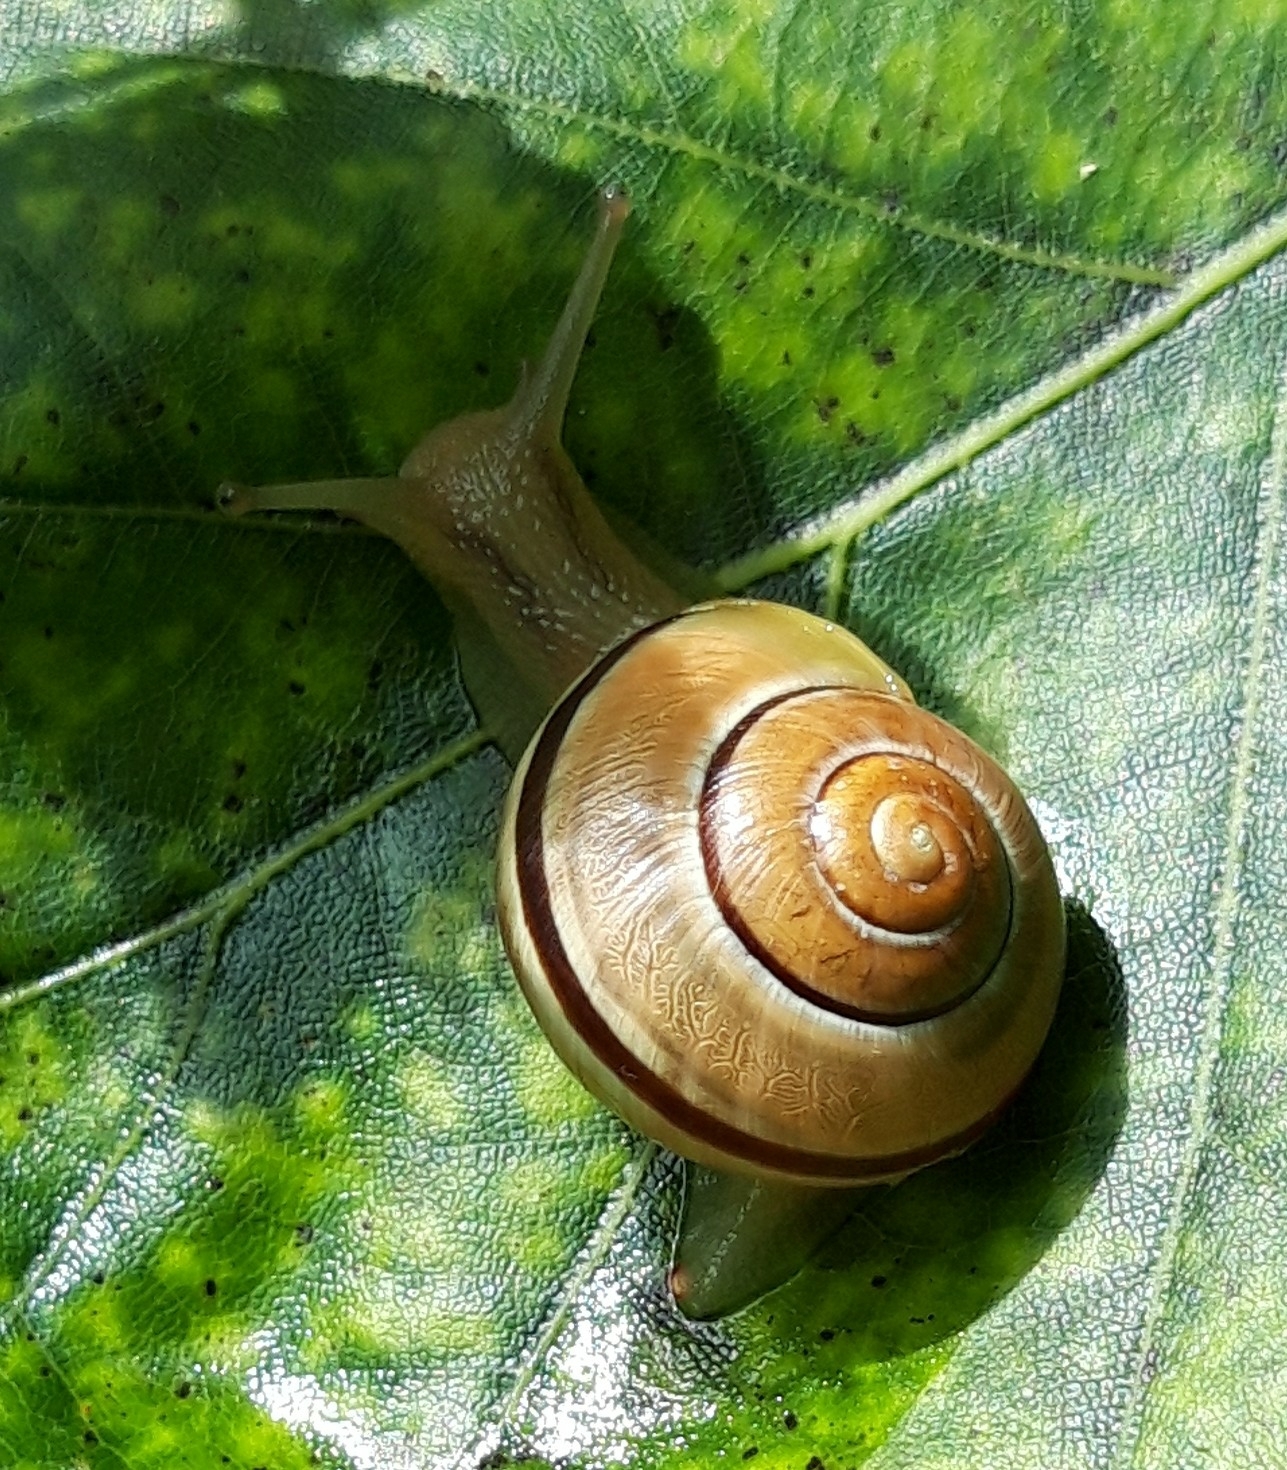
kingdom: Animalia
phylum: Mollusca
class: Gastropoda
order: Stylommatophora
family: Helicidae
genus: Cepaea
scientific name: Cepaea
